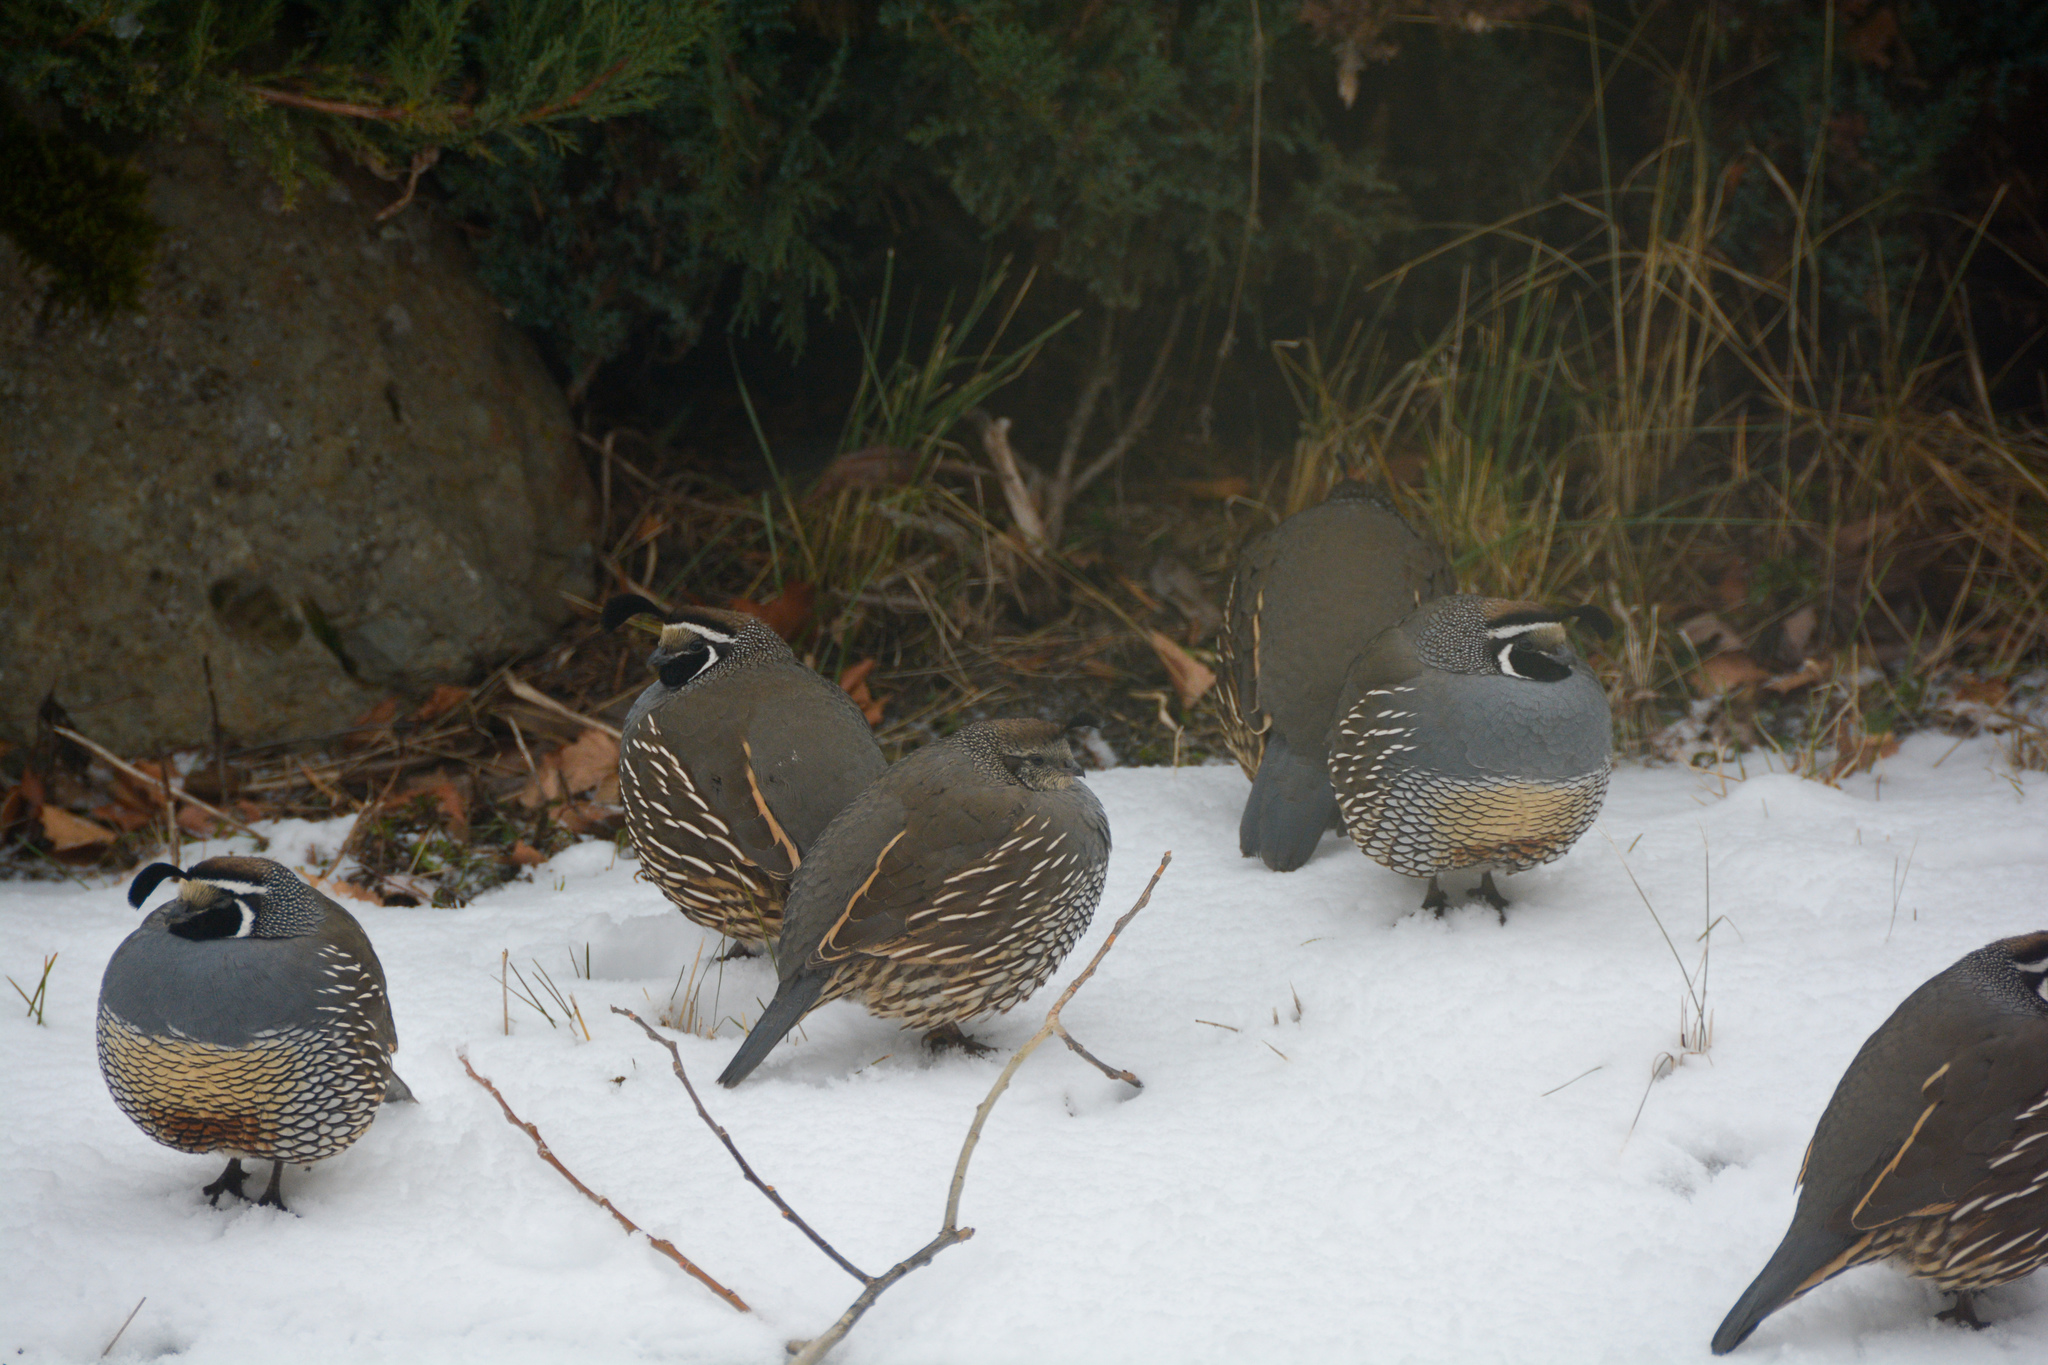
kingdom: Animalia
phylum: Chordata
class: Aves
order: Galliformes
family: Odontophoridae
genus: Callipepla
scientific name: Callipepla californica
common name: California quail
